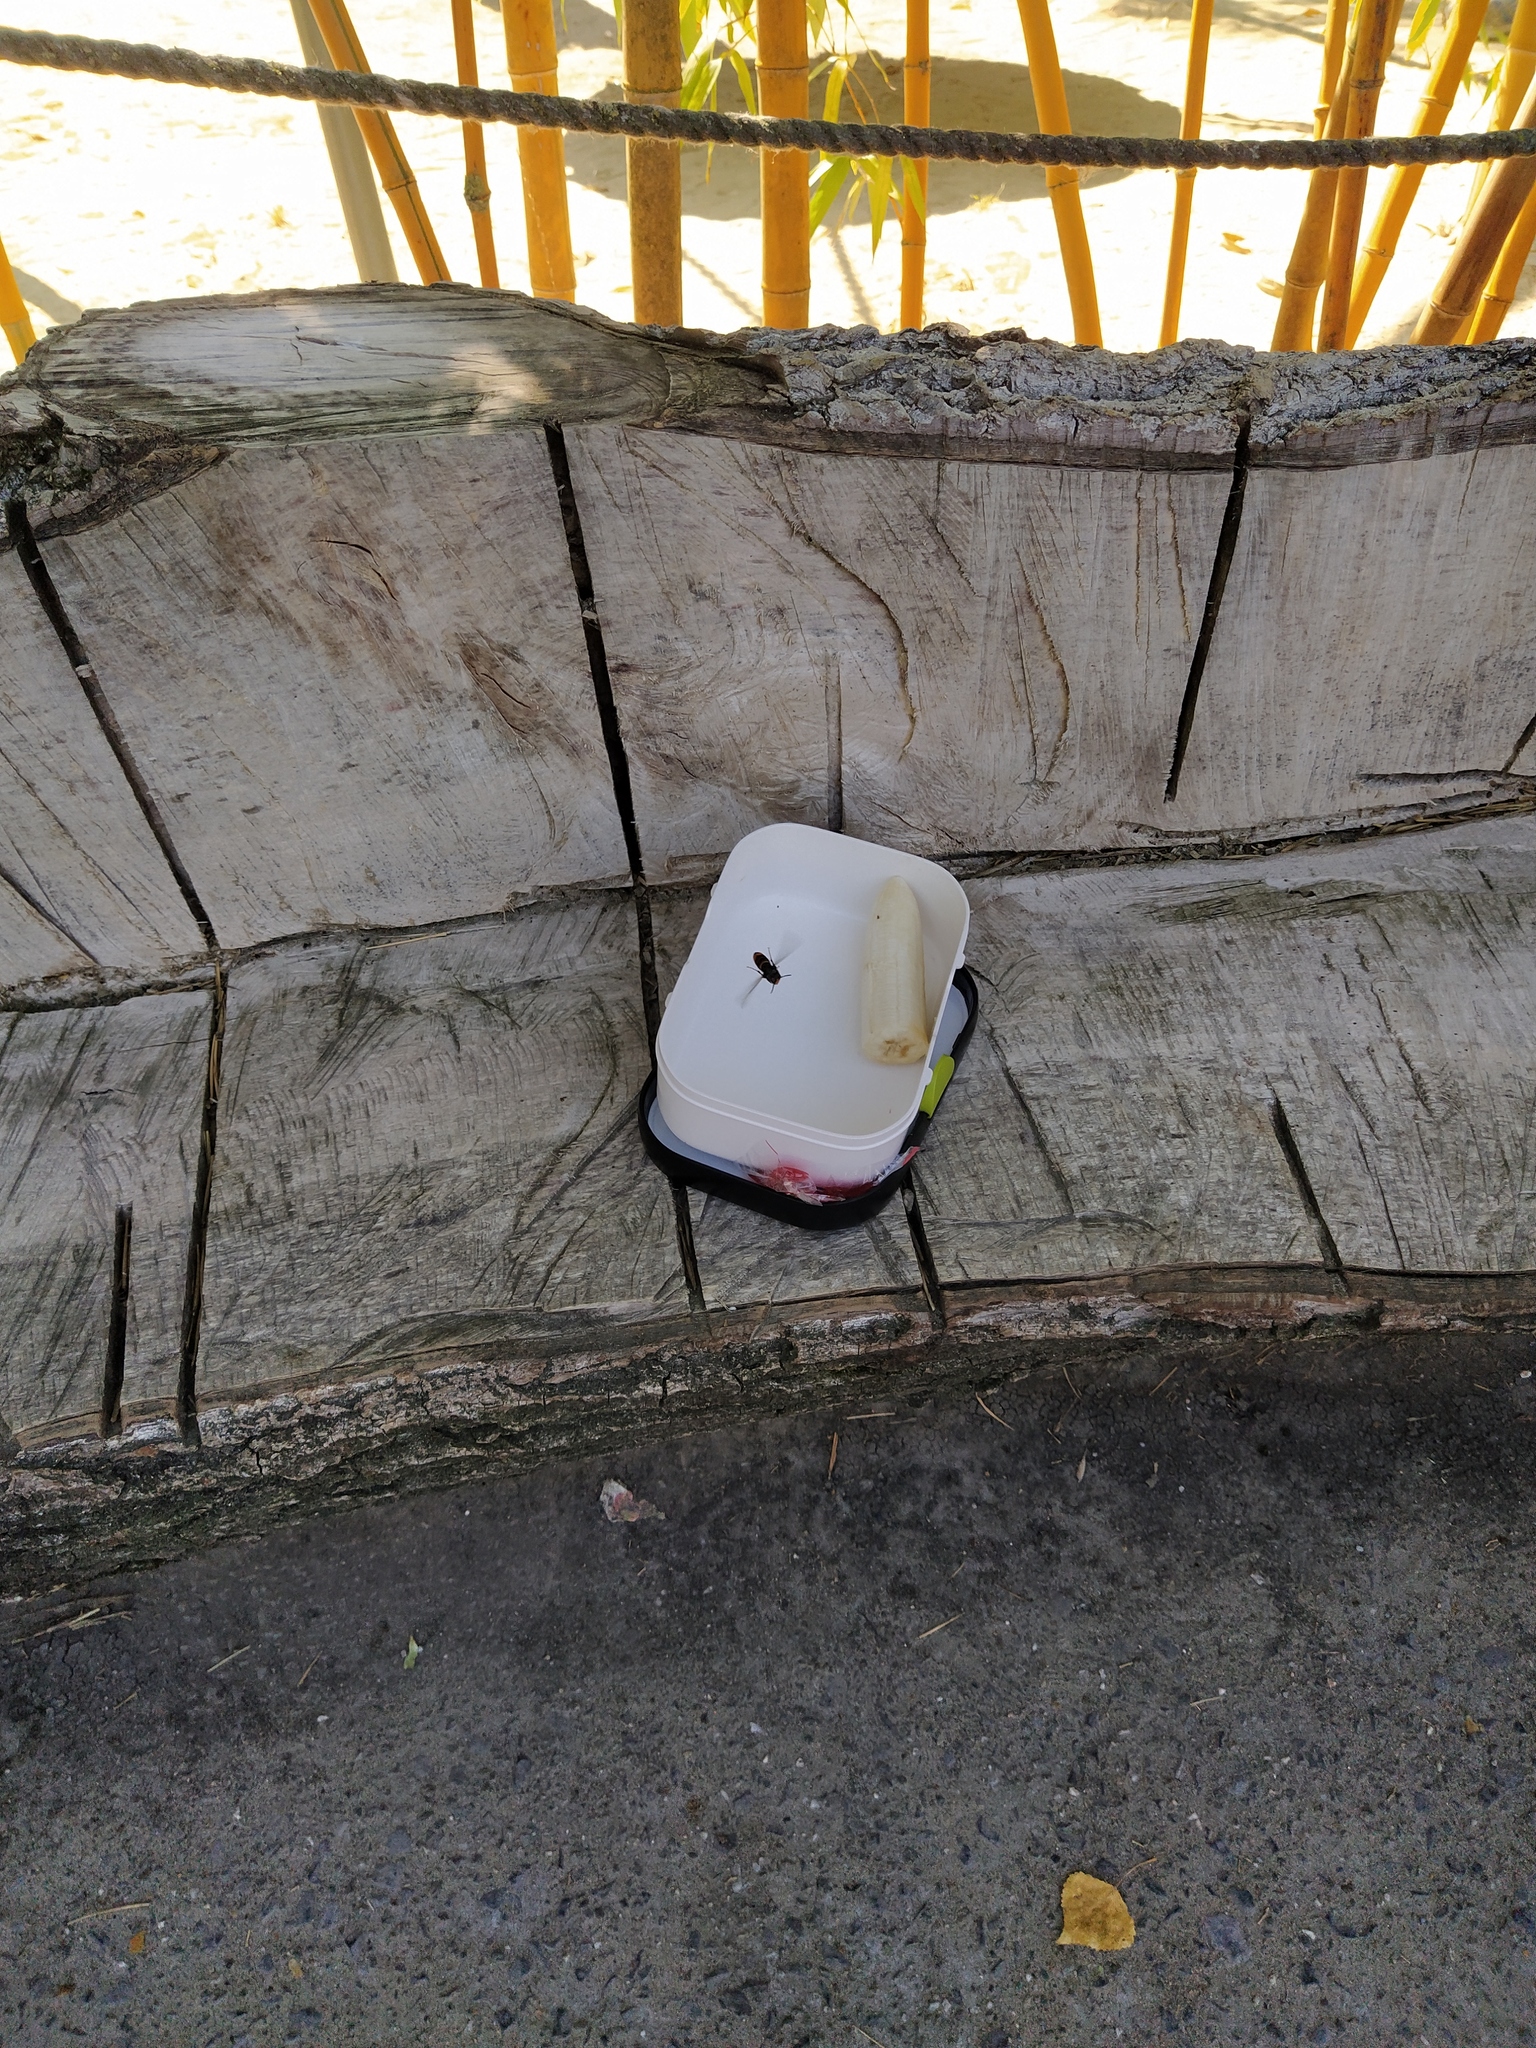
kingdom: Animalia
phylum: Arthropoda
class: Insecta
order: Hymenoptera
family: Vespidae
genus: Vespa
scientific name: Vespa velutina
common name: Asian hornet
